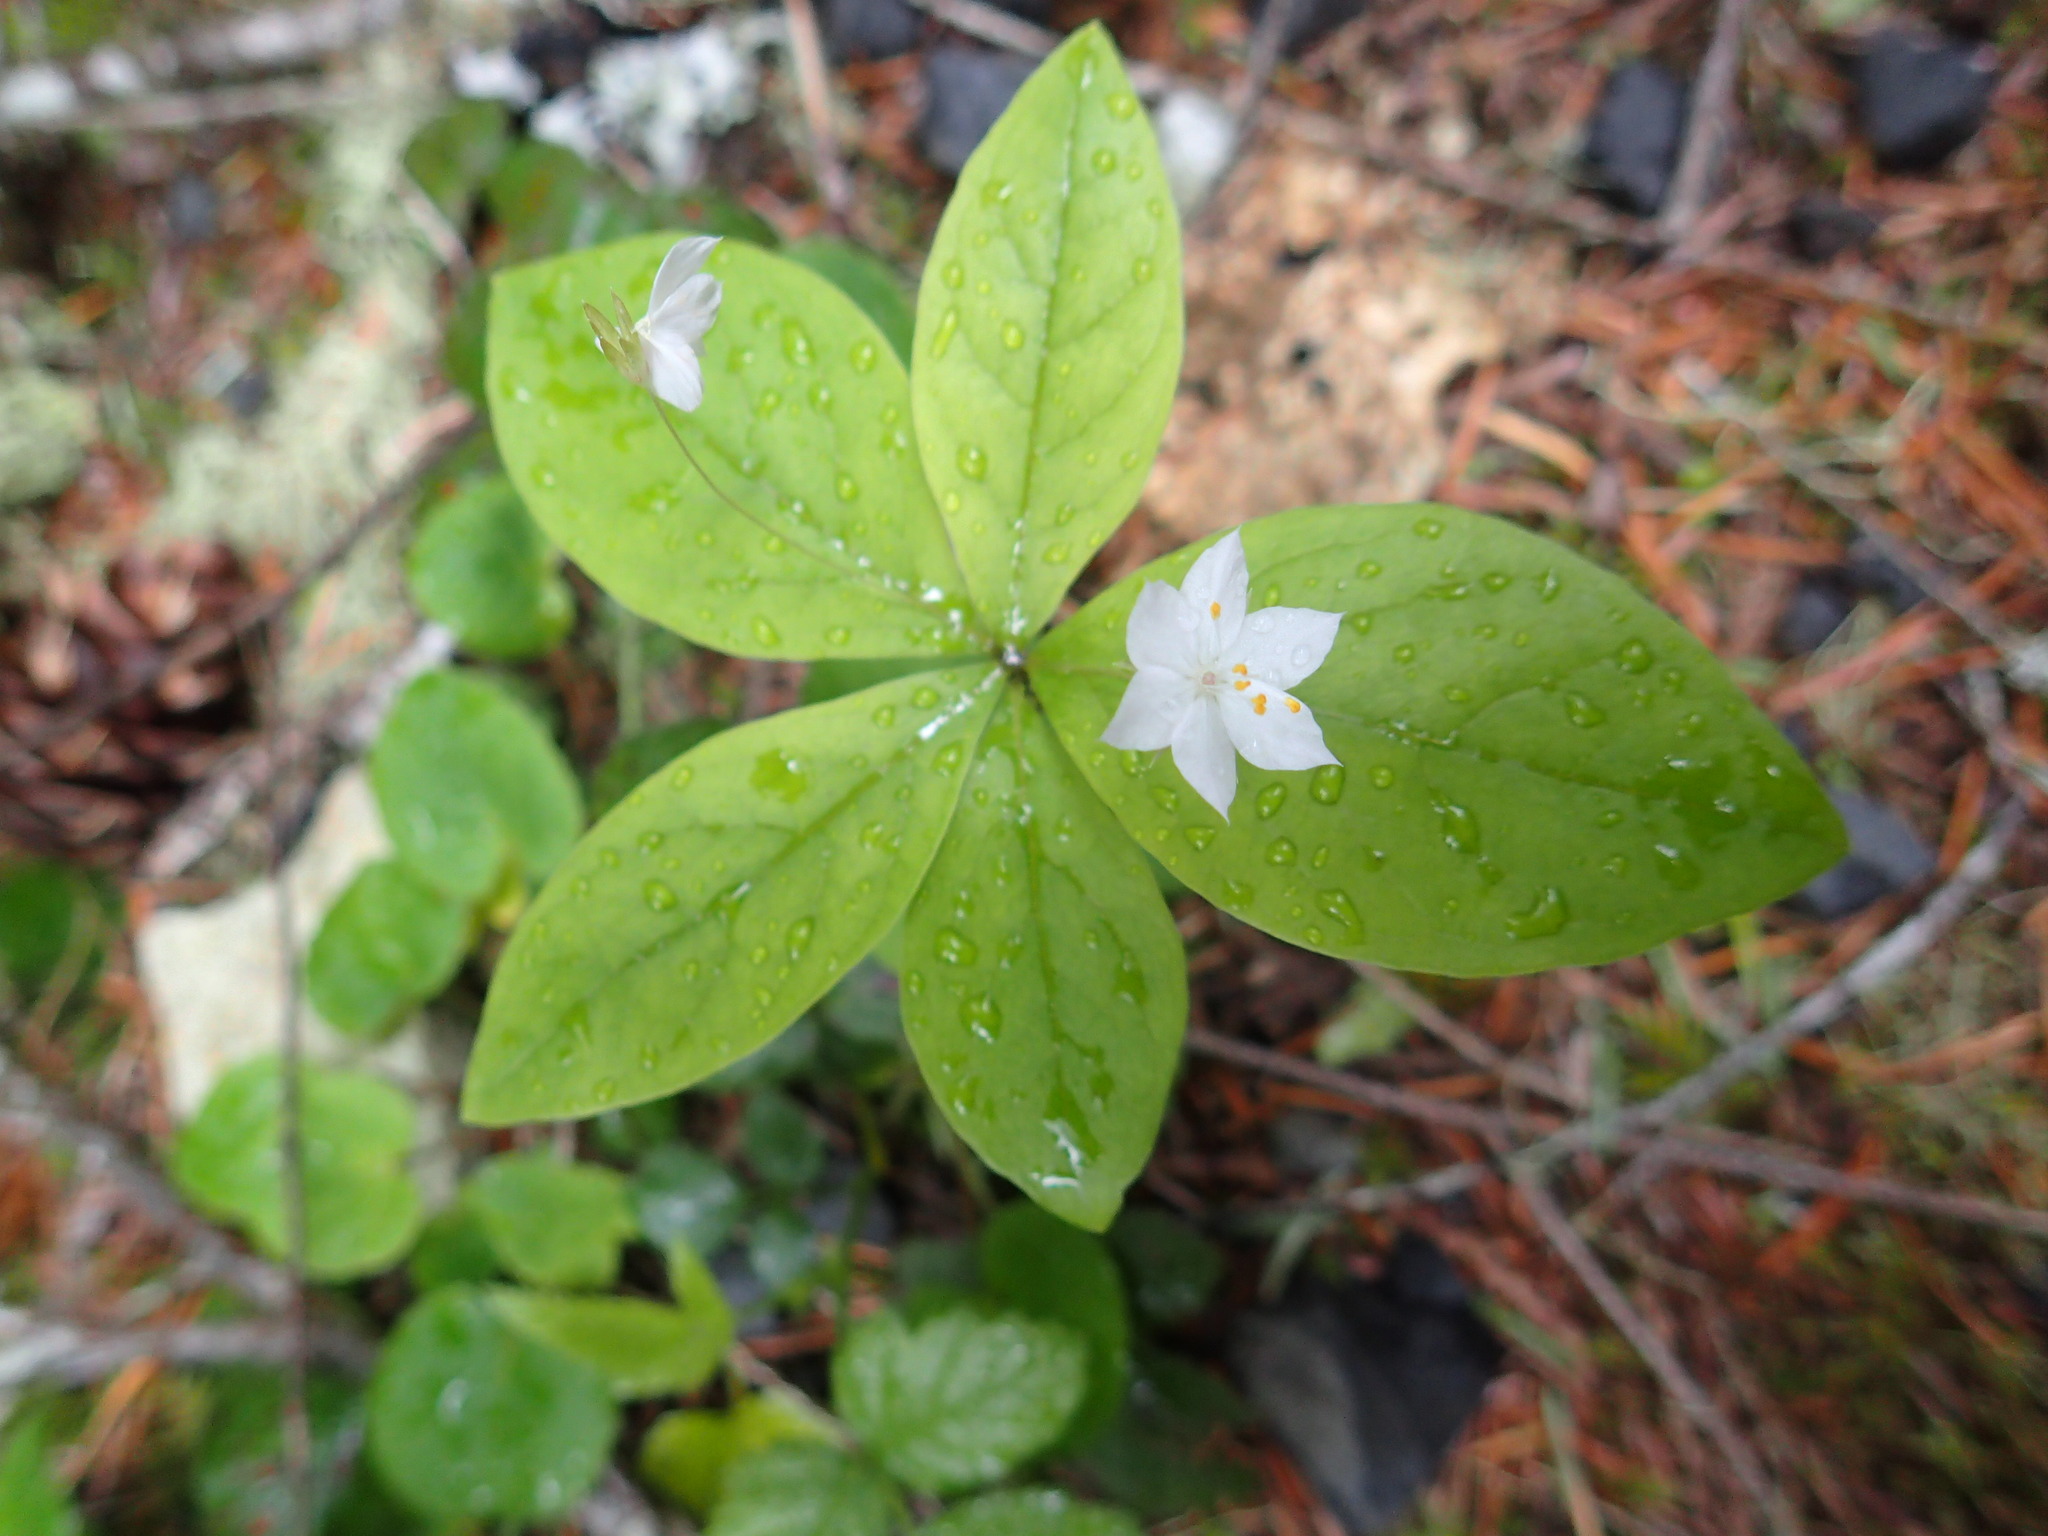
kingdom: Plantae
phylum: Tracheophyta
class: Magnoliopsida
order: Ericales
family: Primulaceae
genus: Lysimachia
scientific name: Lysimachia latifolia
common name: Pacific starflower
